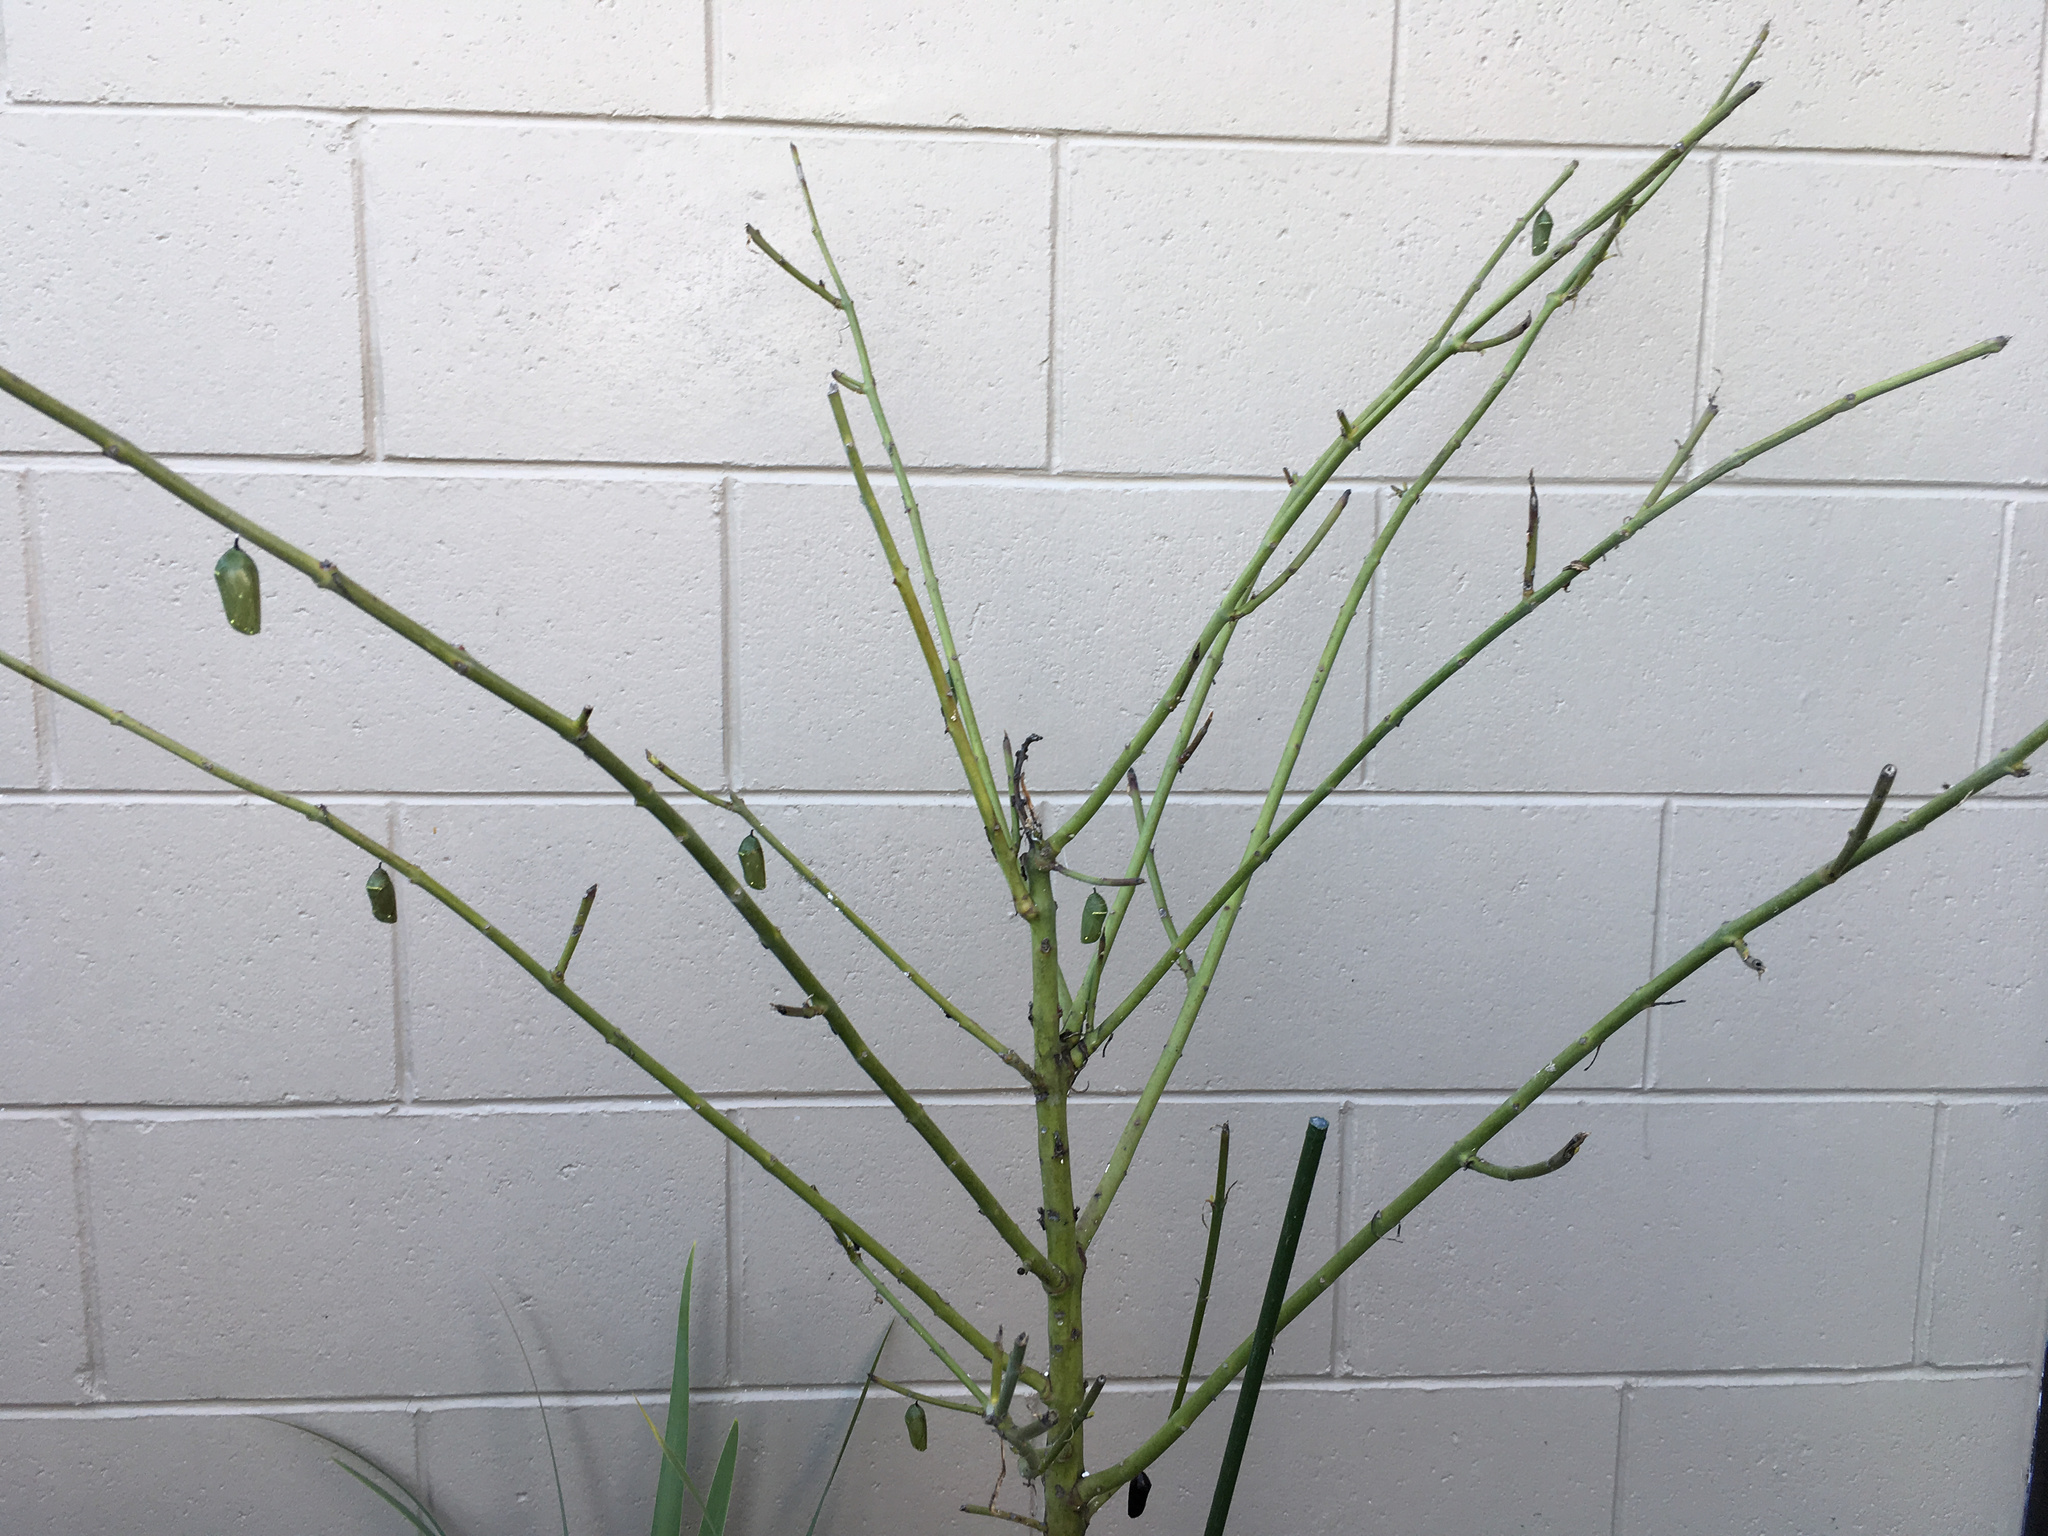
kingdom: Animalia
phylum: Arthropoda
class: Insecta
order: Lepidoptera
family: Nymphalidae
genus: Danaus
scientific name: Danaus plexippus
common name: Monarch
